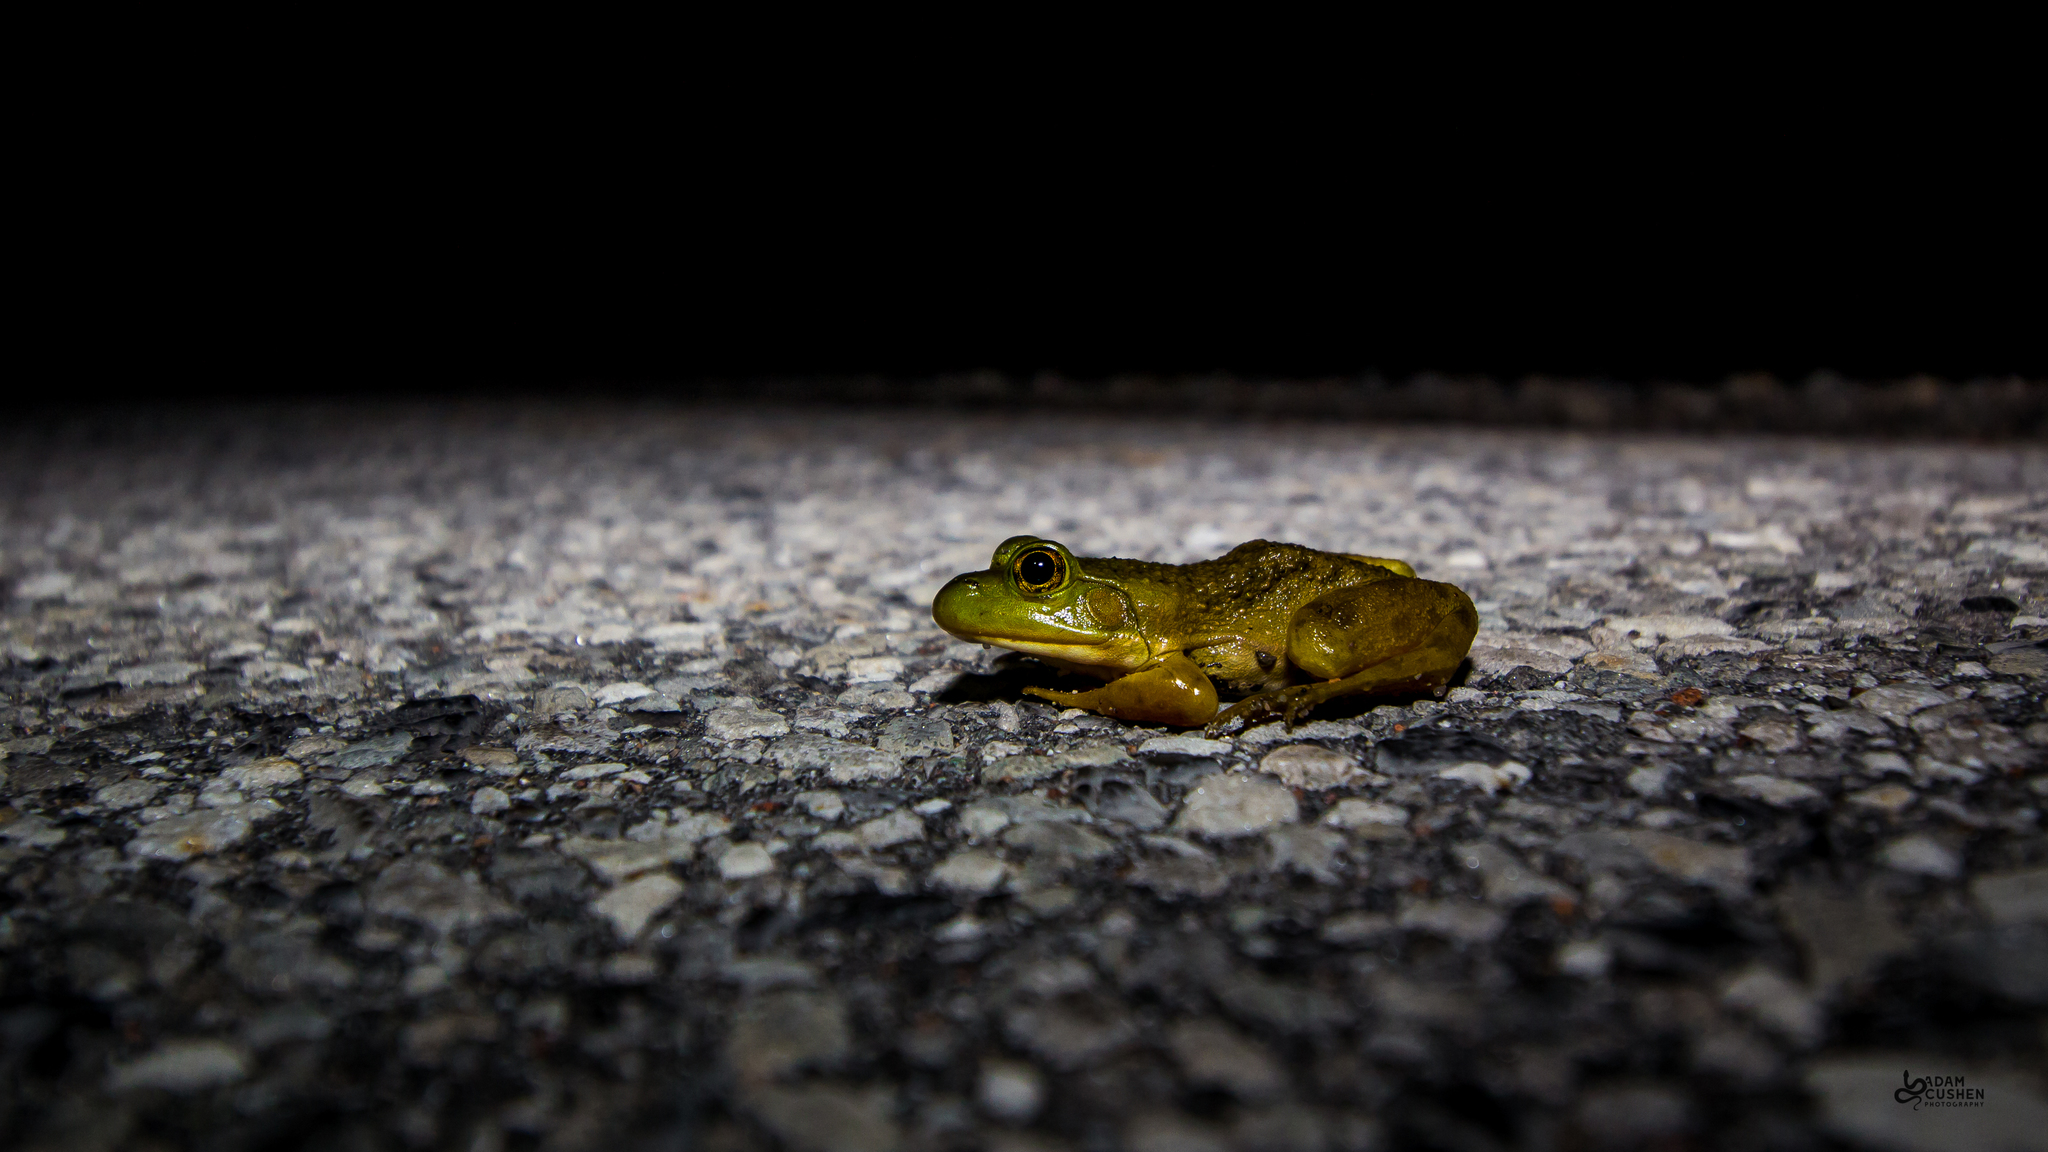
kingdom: Animalia
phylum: Chordata
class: Amphibia
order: Anura
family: Ranidae
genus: Lithobates
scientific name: Lithobates catesbeianus
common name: American bullfrog
